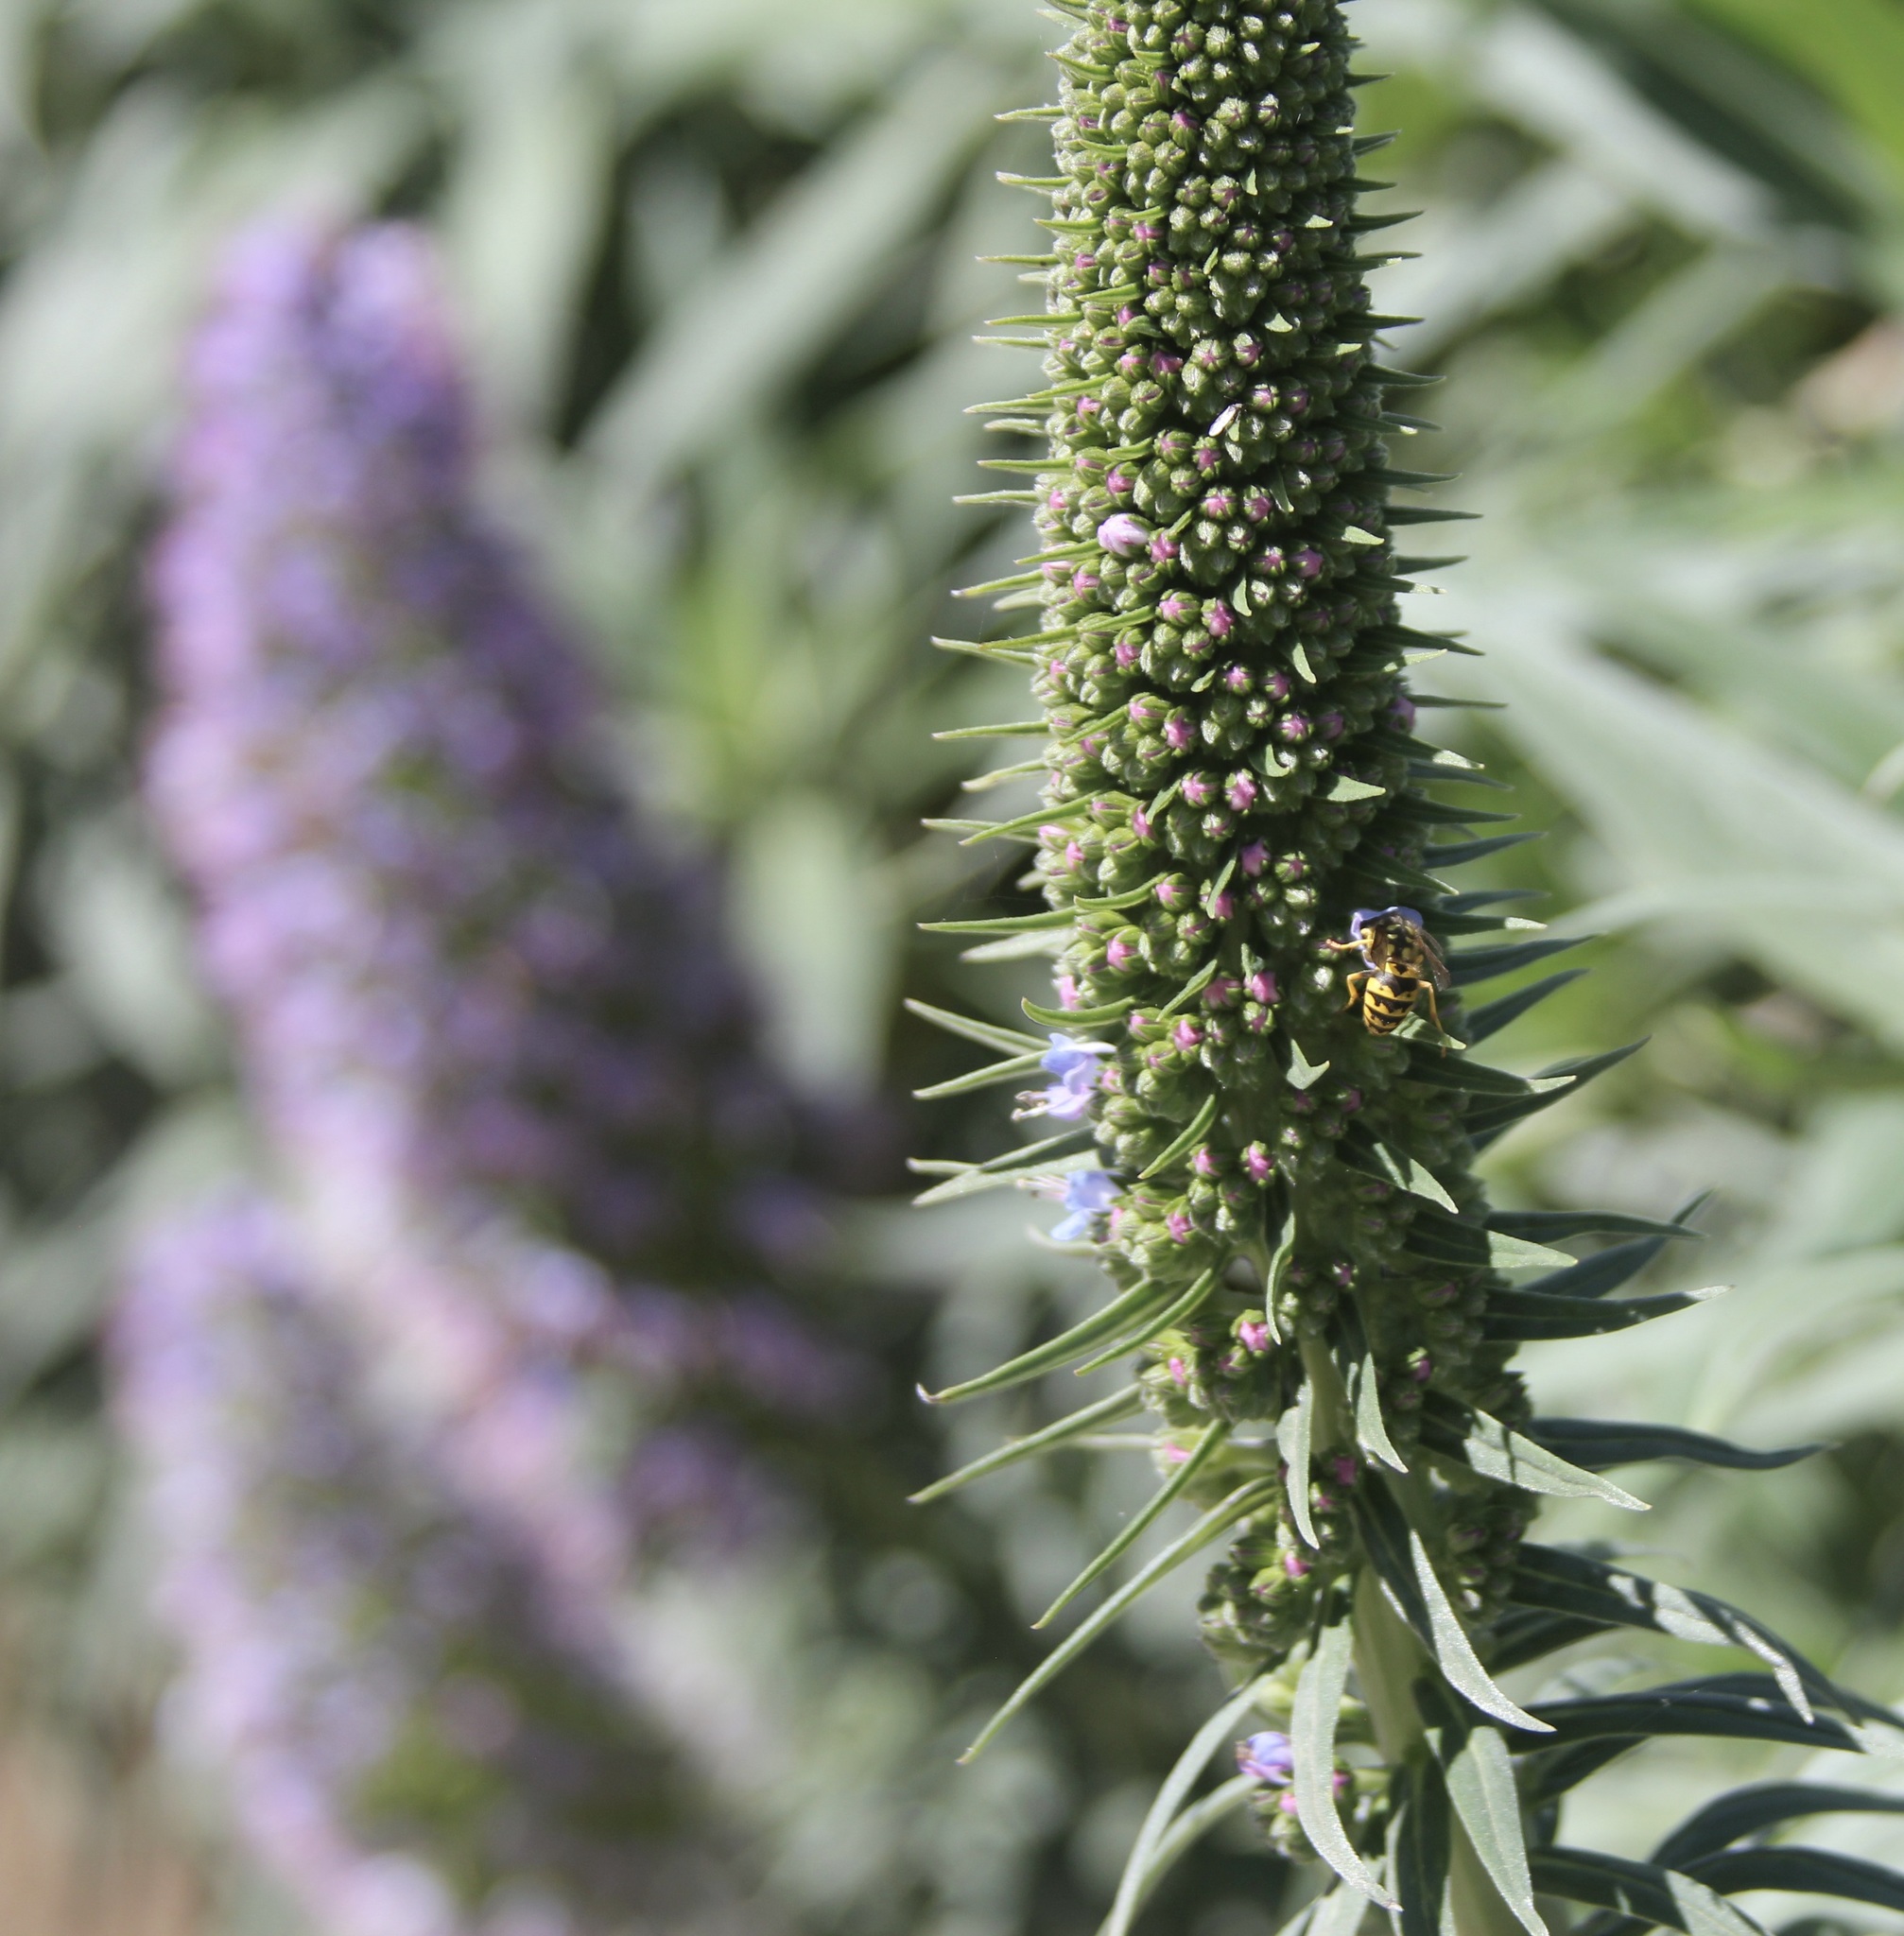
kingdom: Animalia
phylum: Arthropoda
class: Insecta
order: Hymenoptera
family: Vespidae
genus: Vespula
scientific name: Vespula pensylvanica
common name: Western yellowjacket
